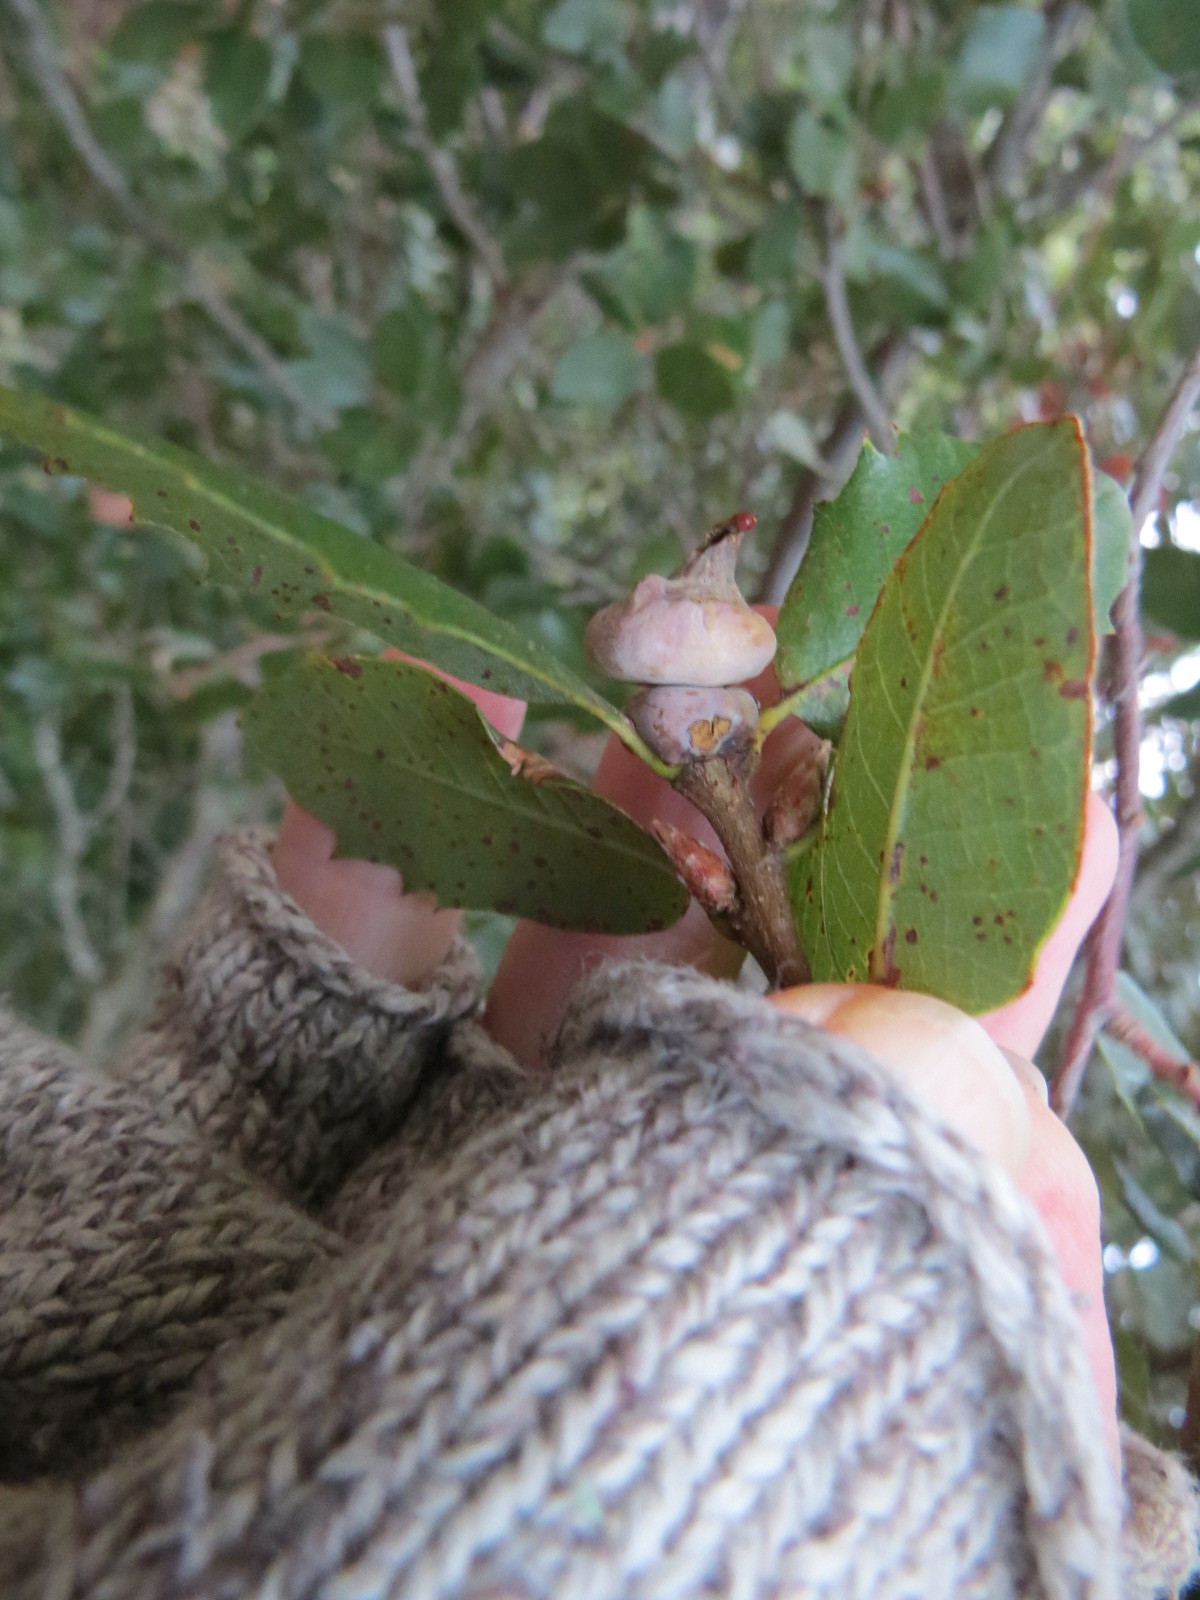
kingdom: Animalia
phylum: Arthropoda
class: Insecta
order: Hymenoptera
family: Cynipidae
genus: Heteroecus
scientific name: Heteroecus
